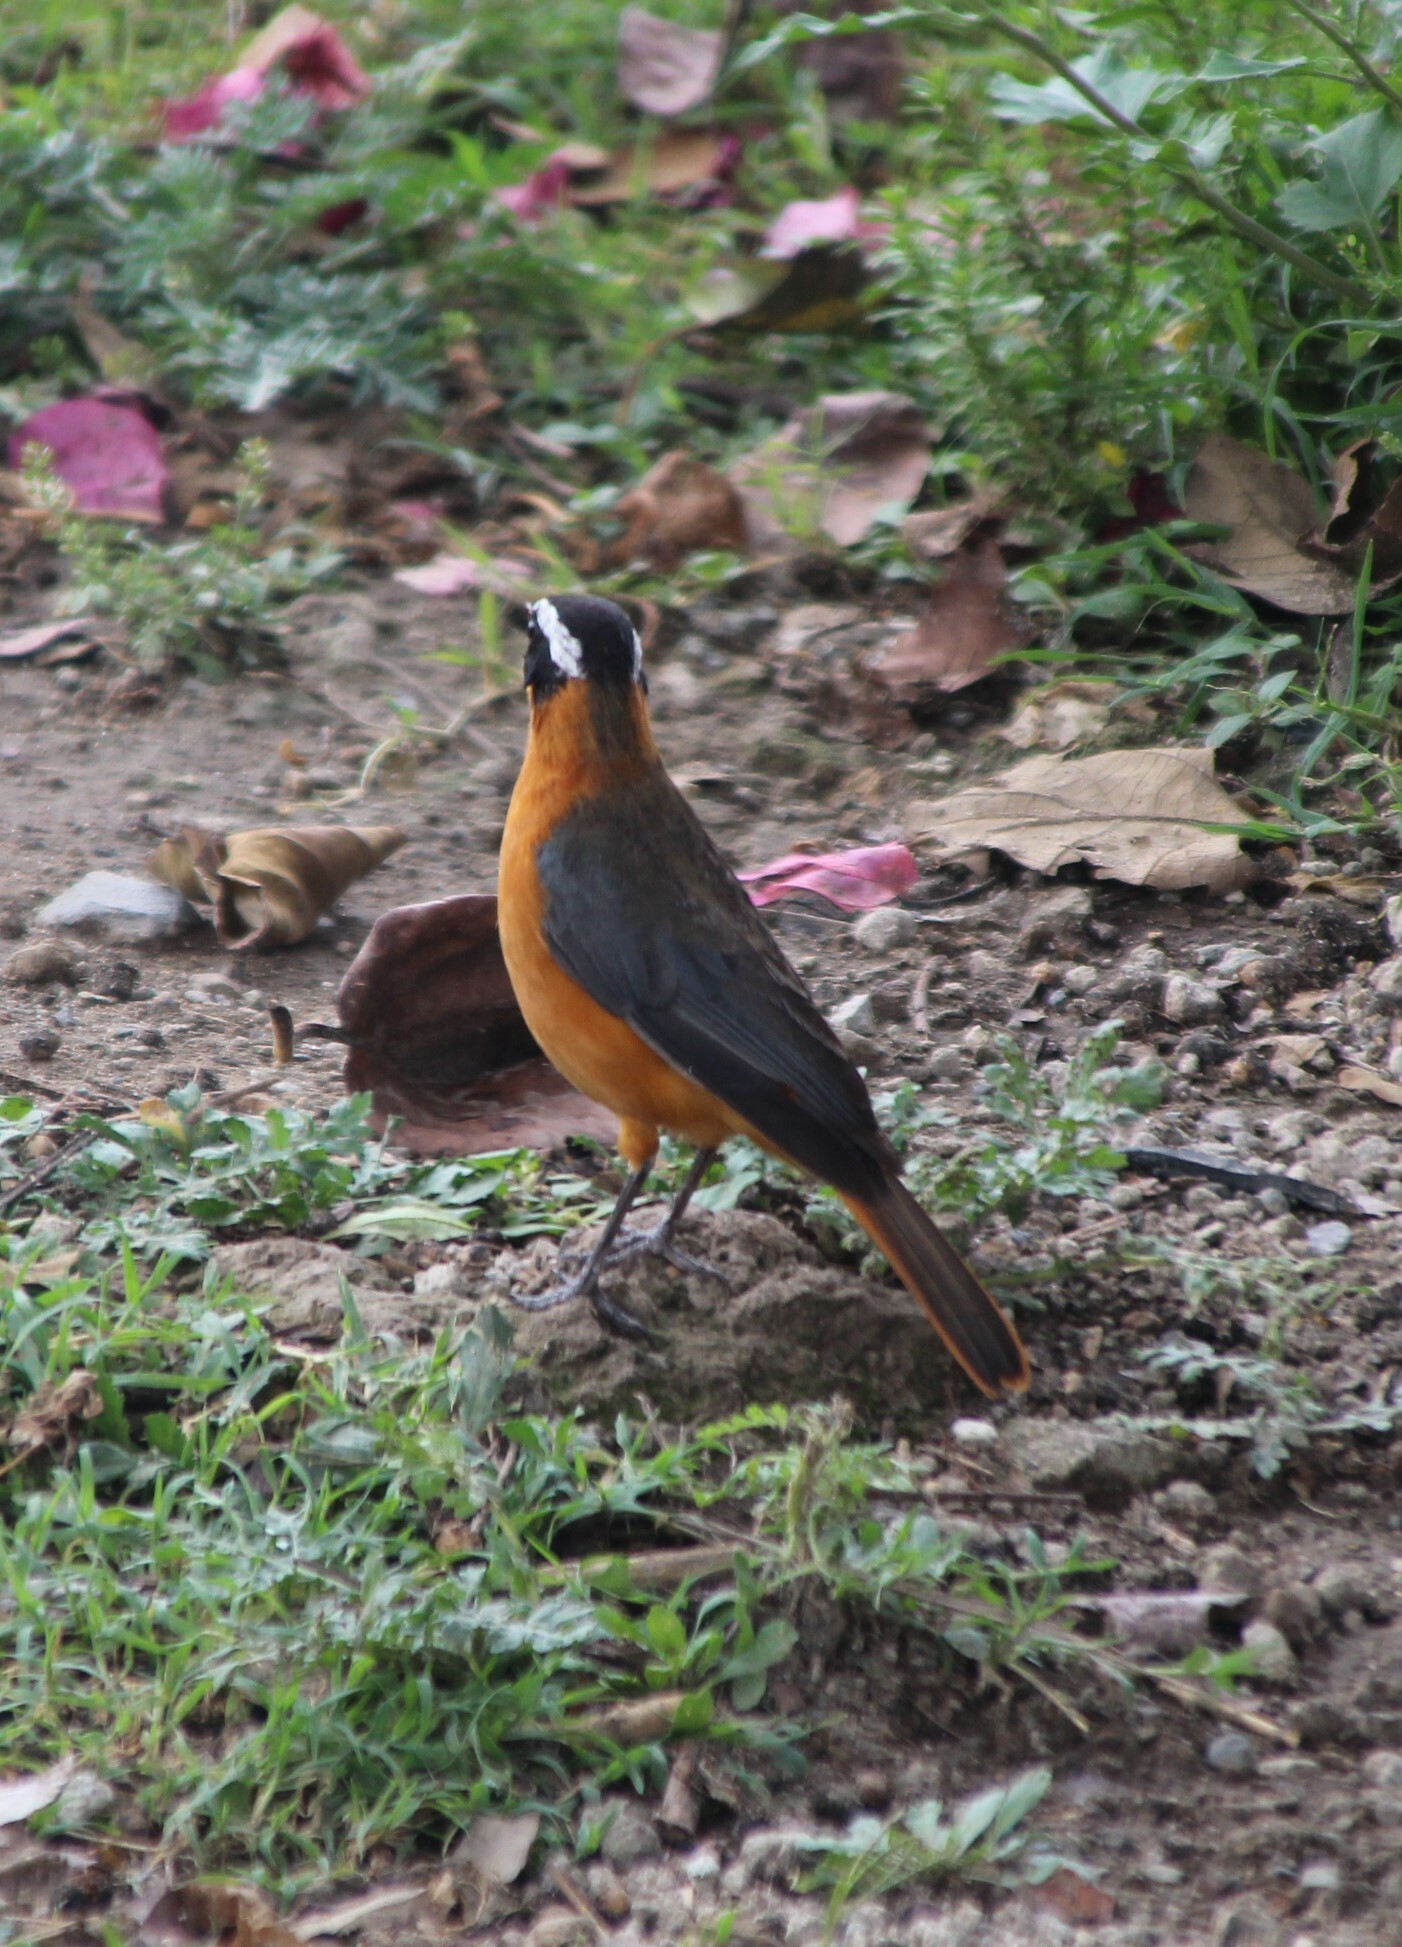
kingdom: Animalia
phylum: Chordata
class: Aves
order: Passeriformes
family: Muscicapidae
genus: Cossypha
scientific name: Cossypha heuglini
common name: White-browed robin-chat
